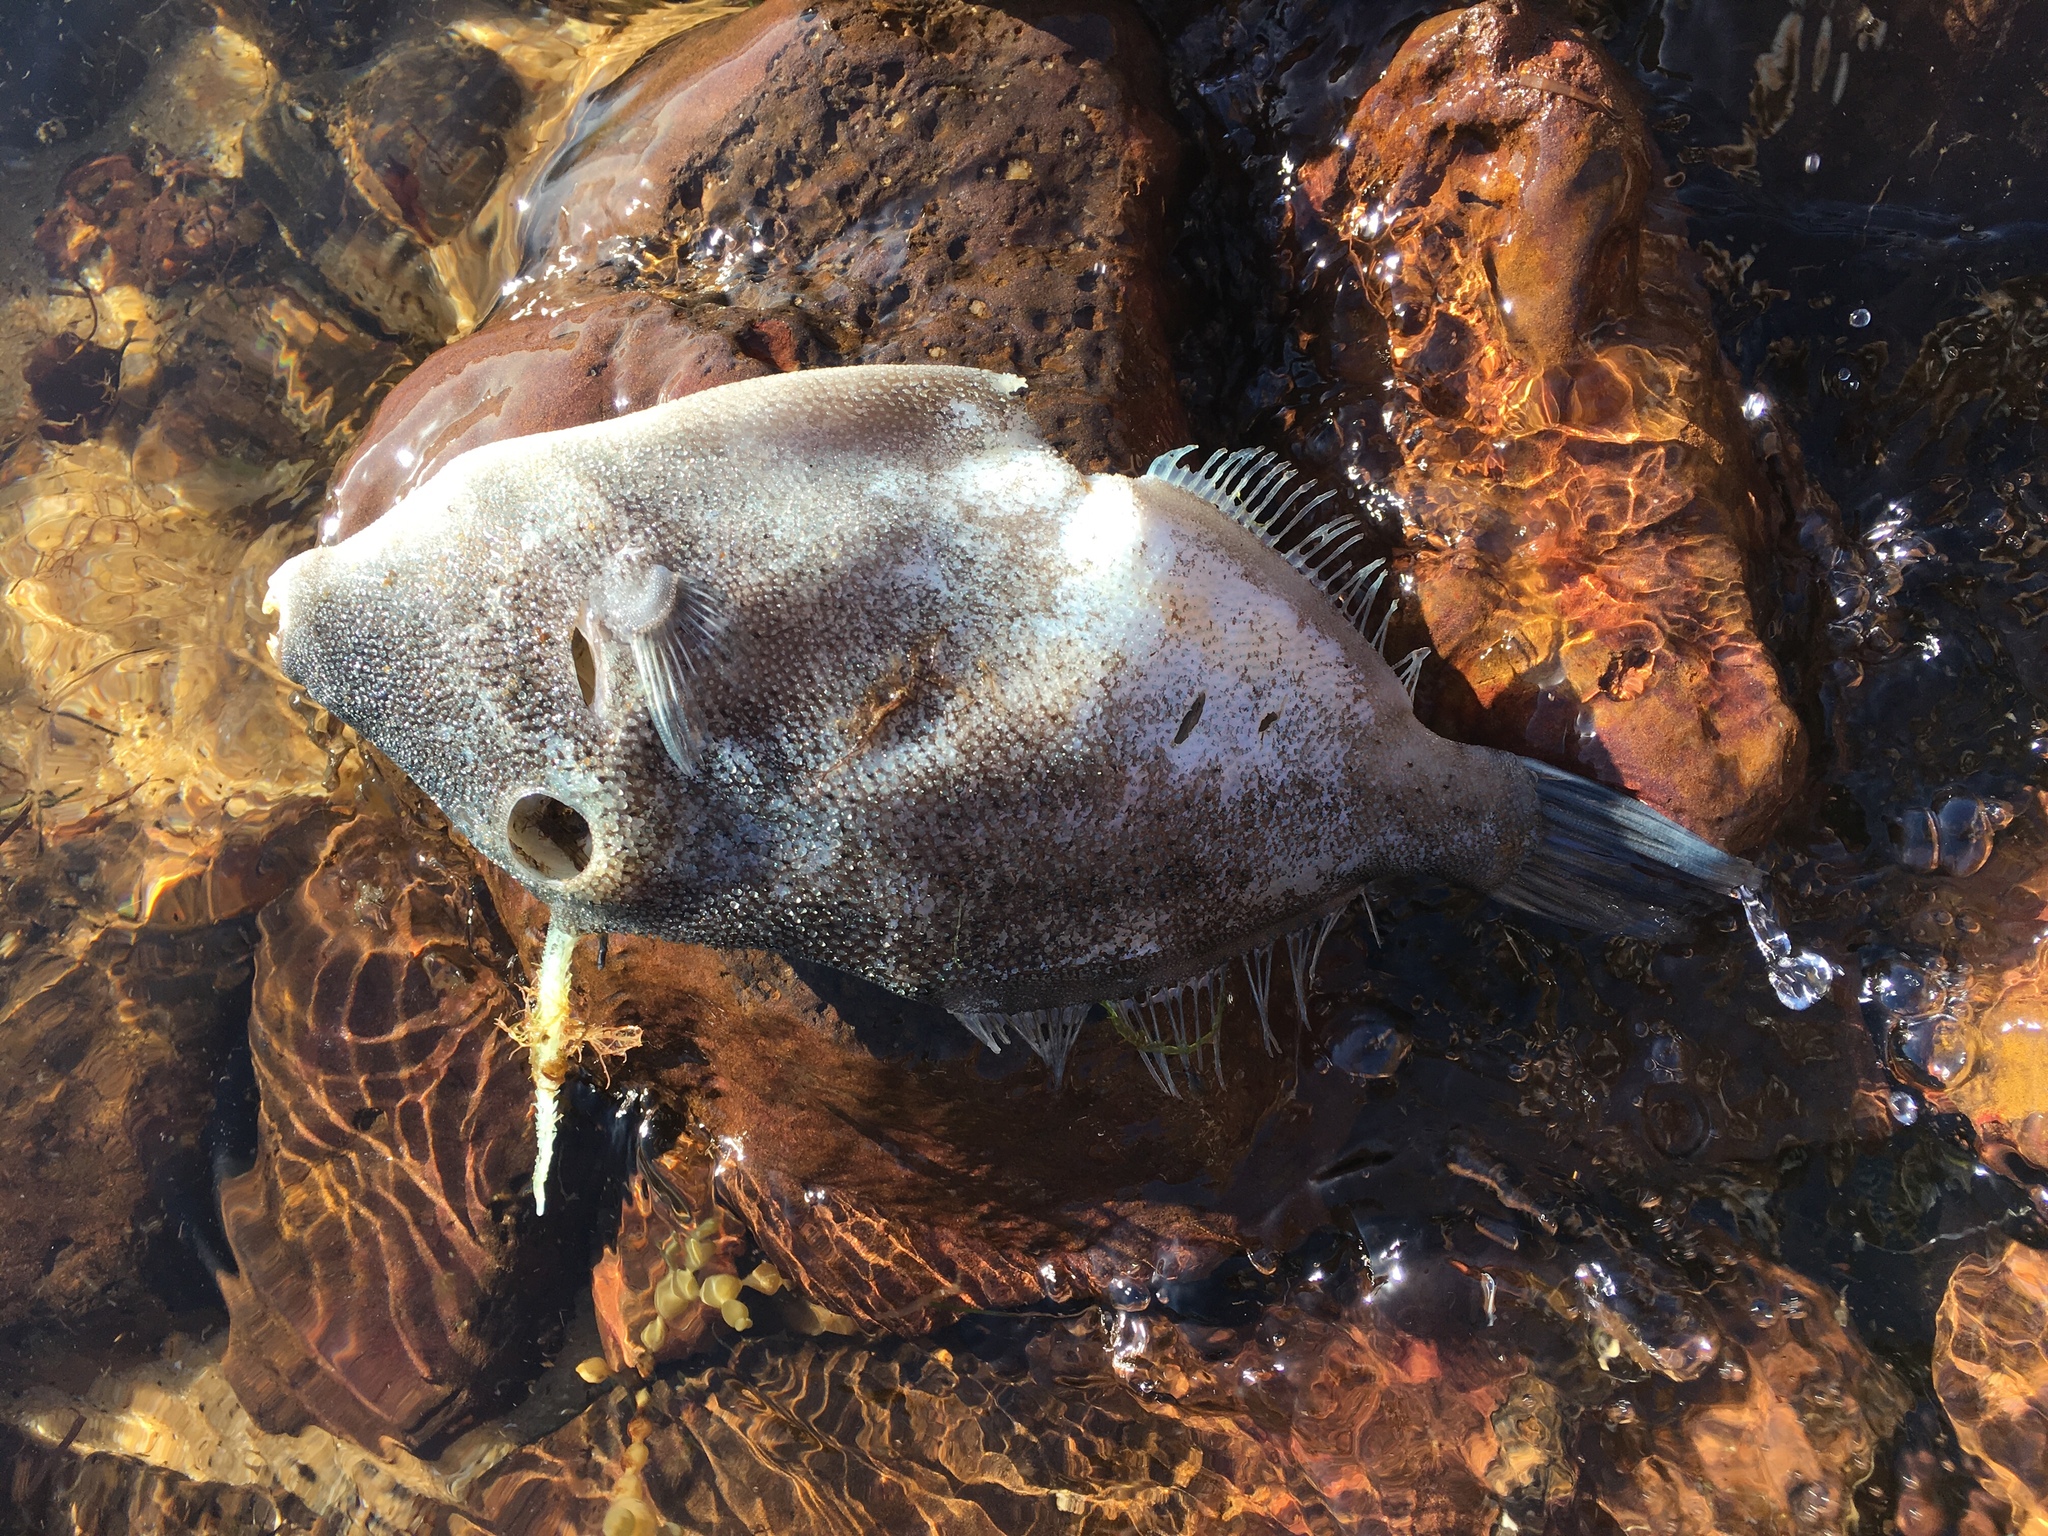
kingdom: Animalia
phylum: Chordata
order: Tetraodontiformes
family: Monacanthidae
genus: Scobinichthys
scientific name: Scobinichthys granulatus
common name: Rough leatherjacket
